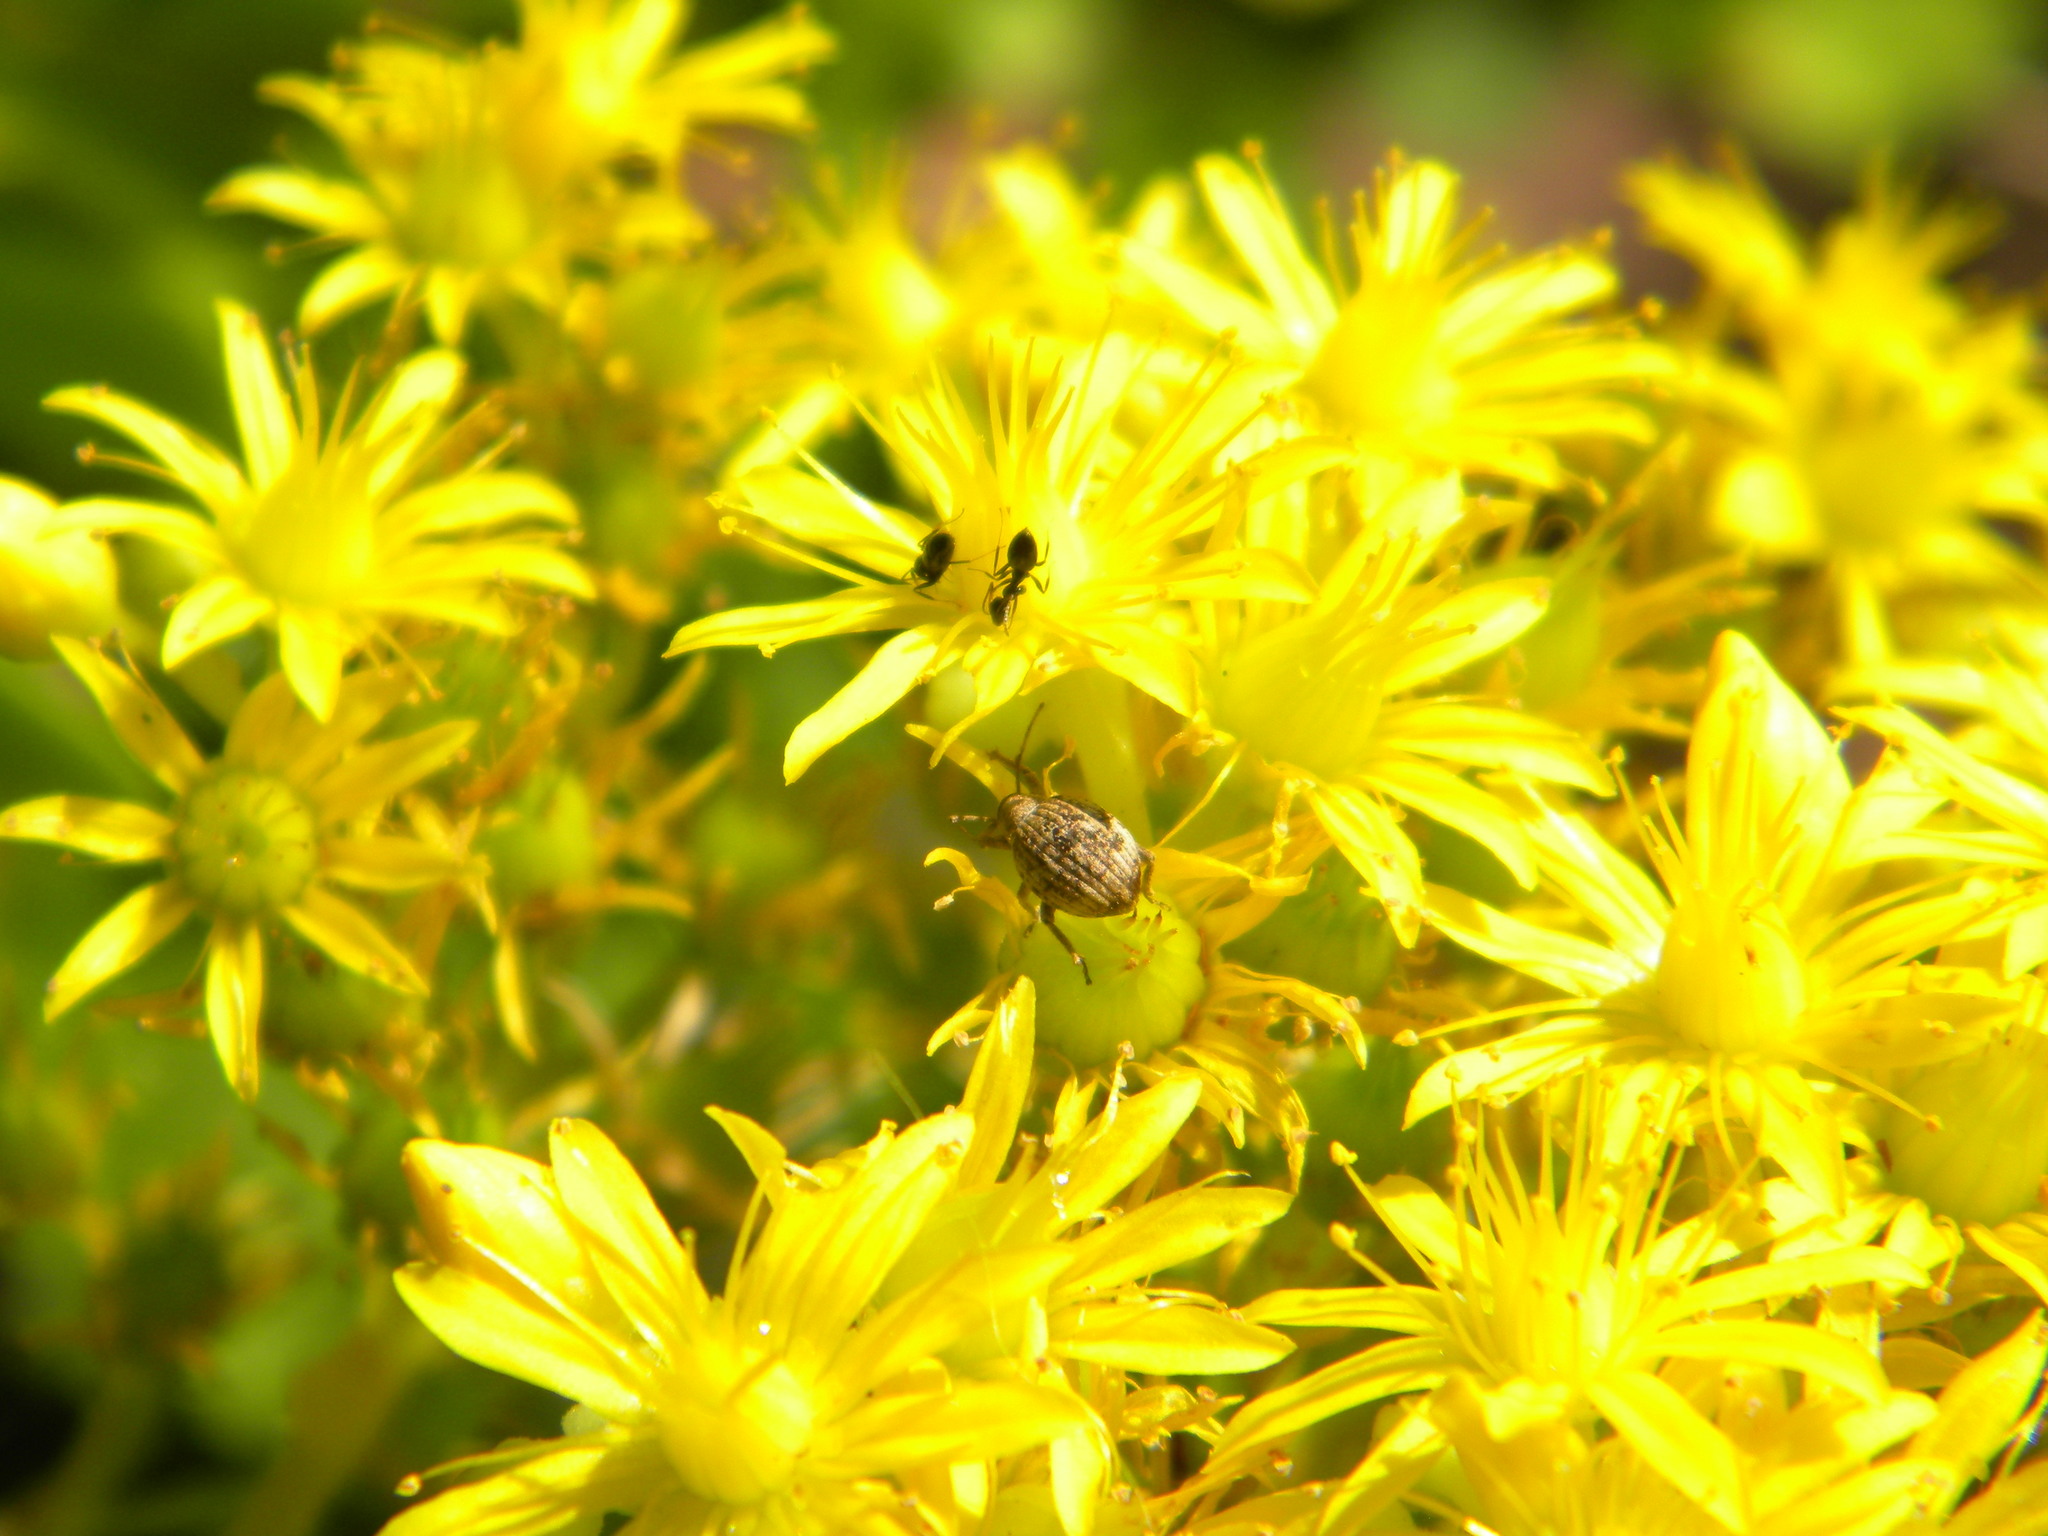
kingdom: Animalia
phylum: Arthropoda
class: Insecta
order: Coleoptera
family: Curculionidae
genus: Ellimenistes
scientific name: Ellimenistes laesicollis
